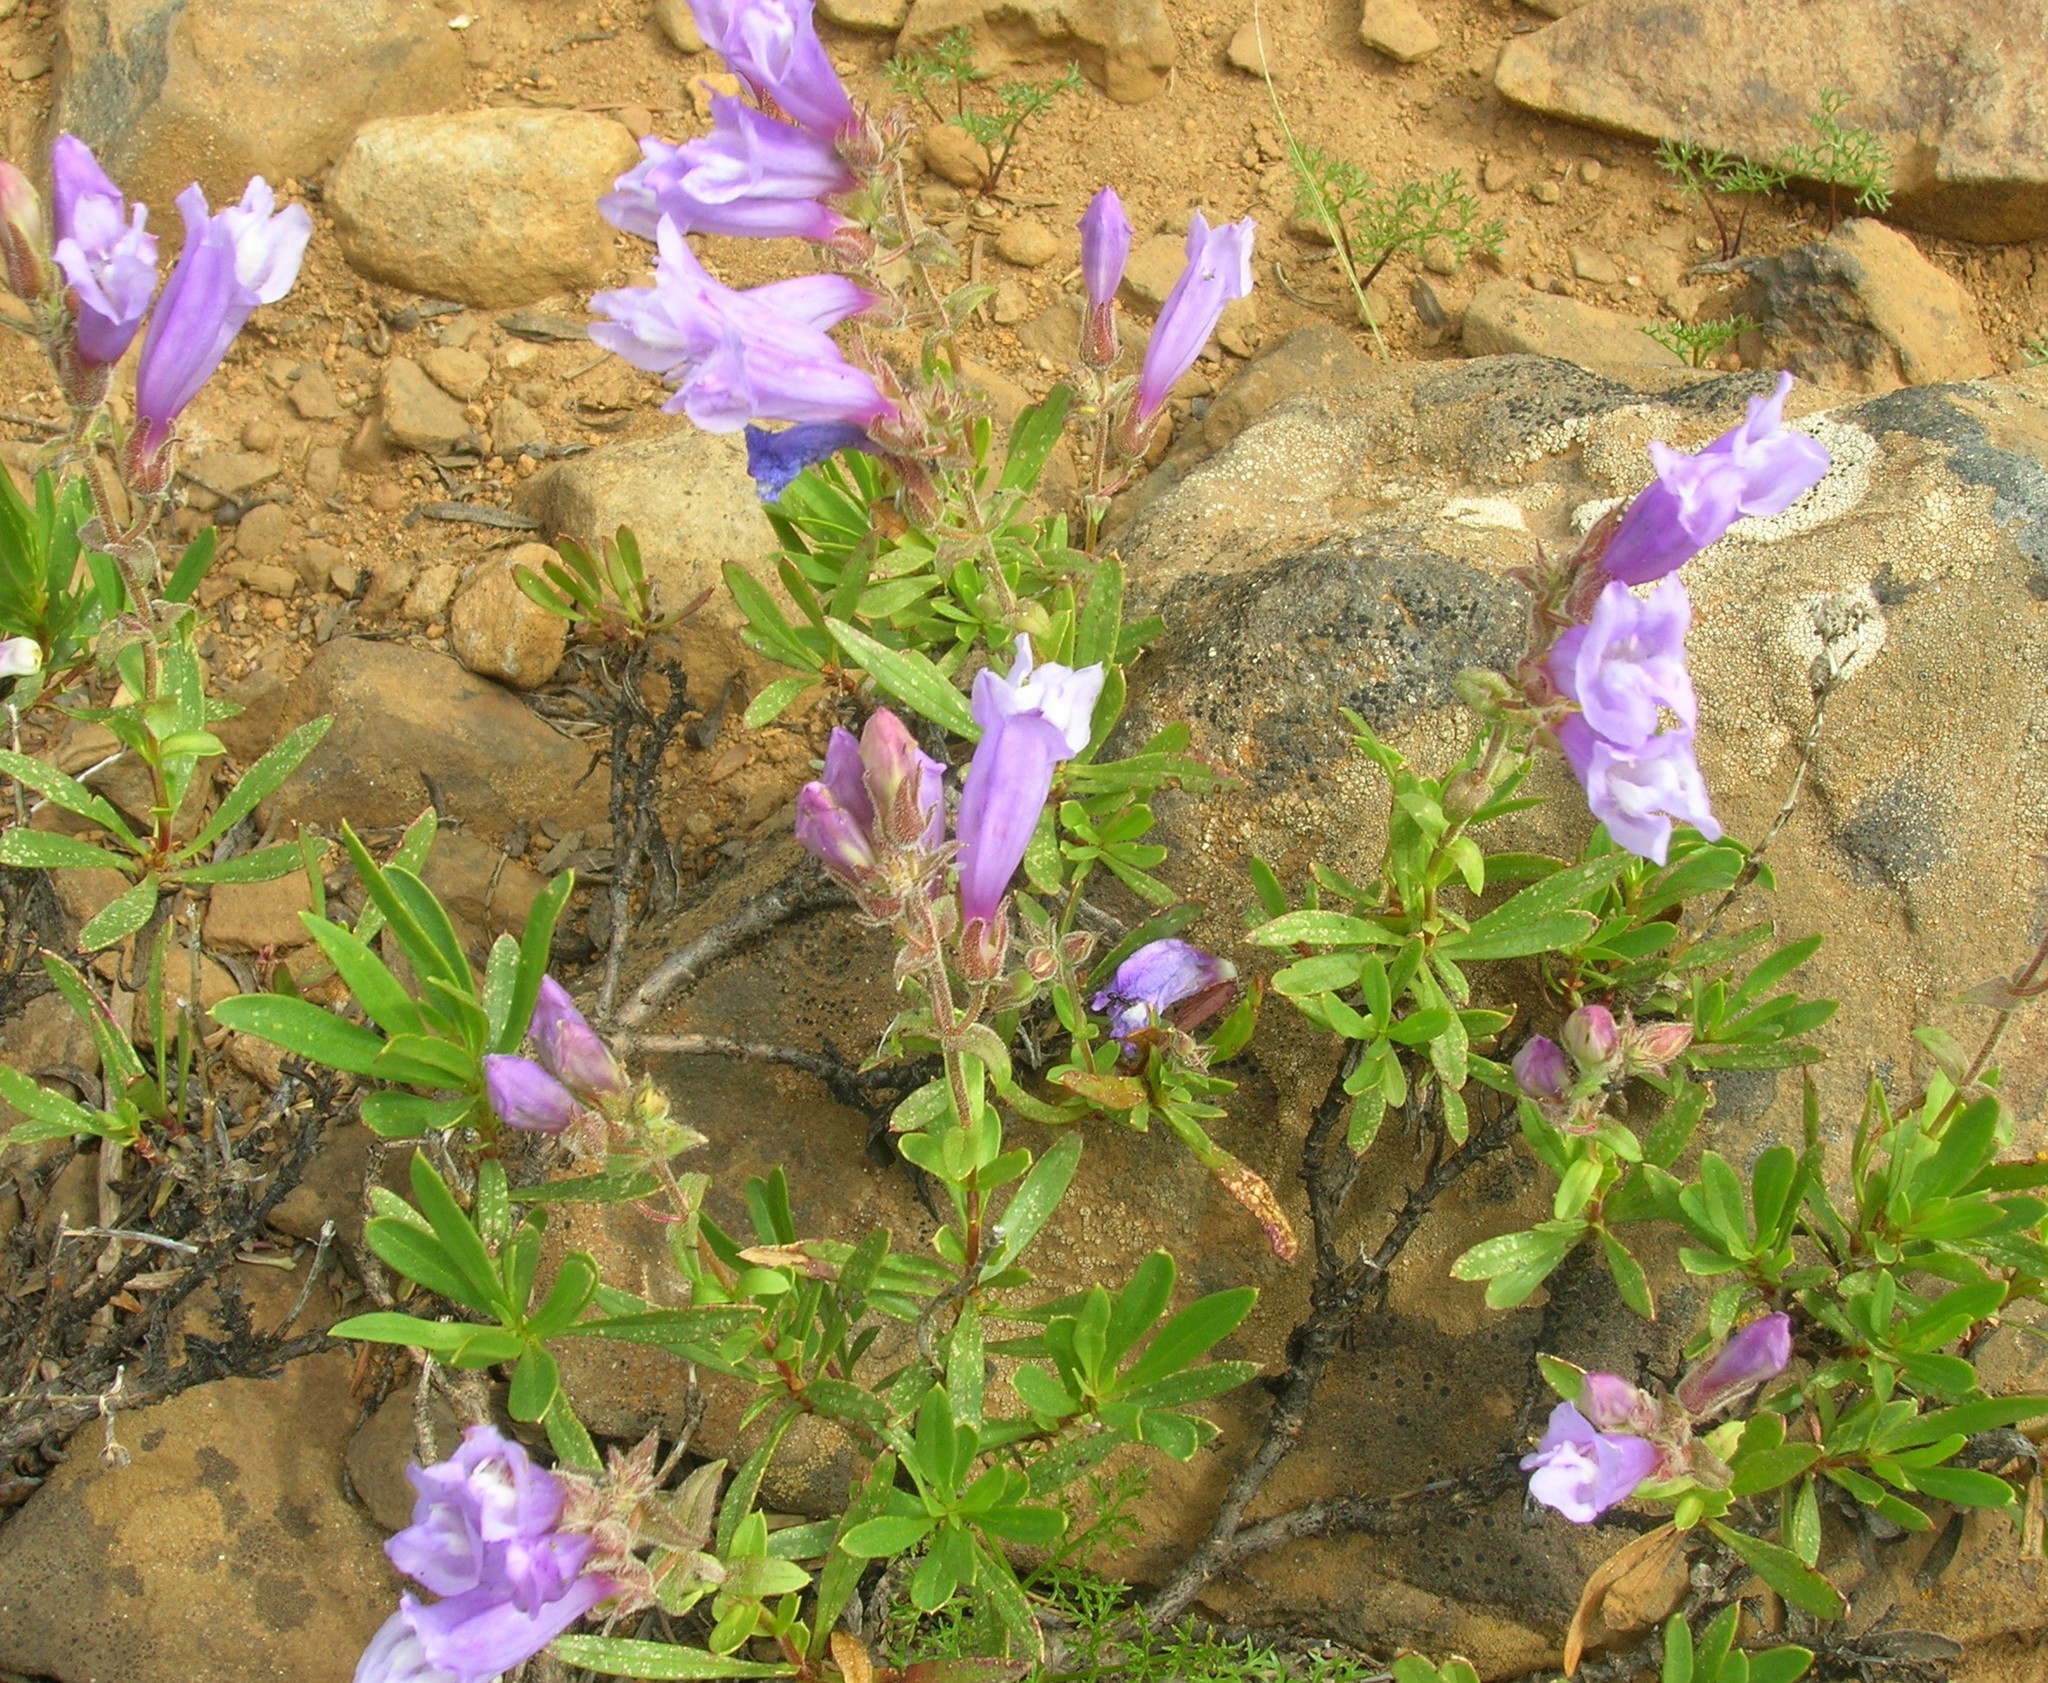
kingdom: Plantae
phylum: Tracheophyta
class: Magnoliopsida
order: Lamiales
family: Plantaginaceae
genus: Penstemon
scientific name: Penstemon fruticosus
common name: Bush penstemon
